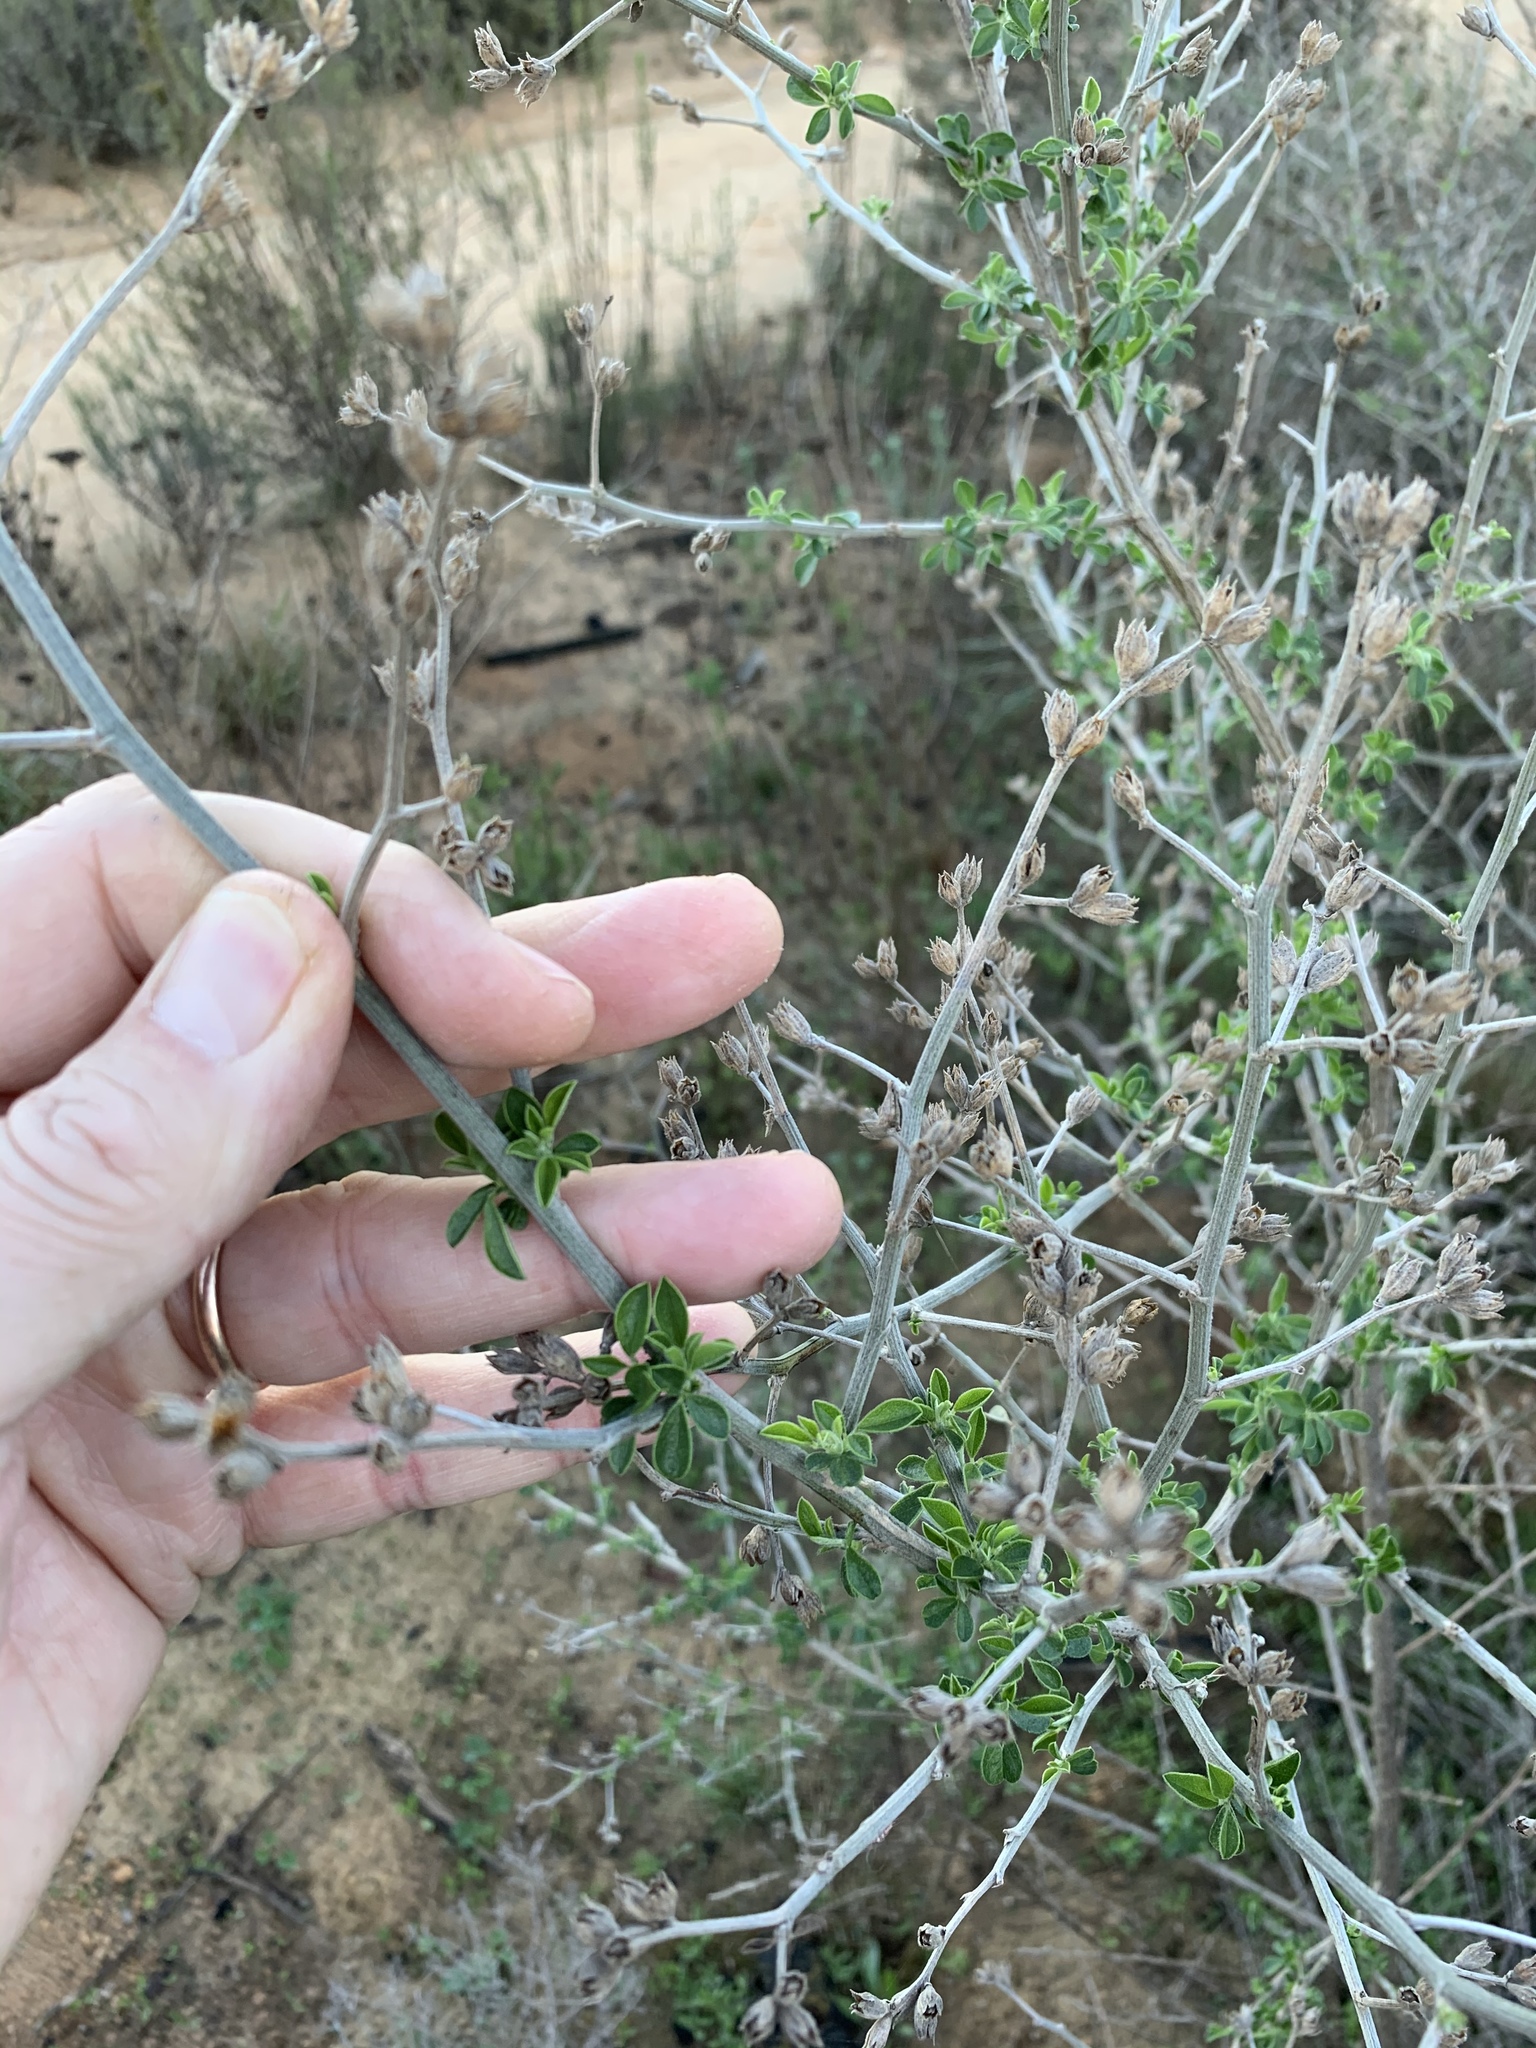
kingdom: Plantae
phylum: Tracheophyta
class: Magnoliopsida
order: Fabales
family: Fabaceae
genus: Psoralea
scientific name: Psoralea hirta
